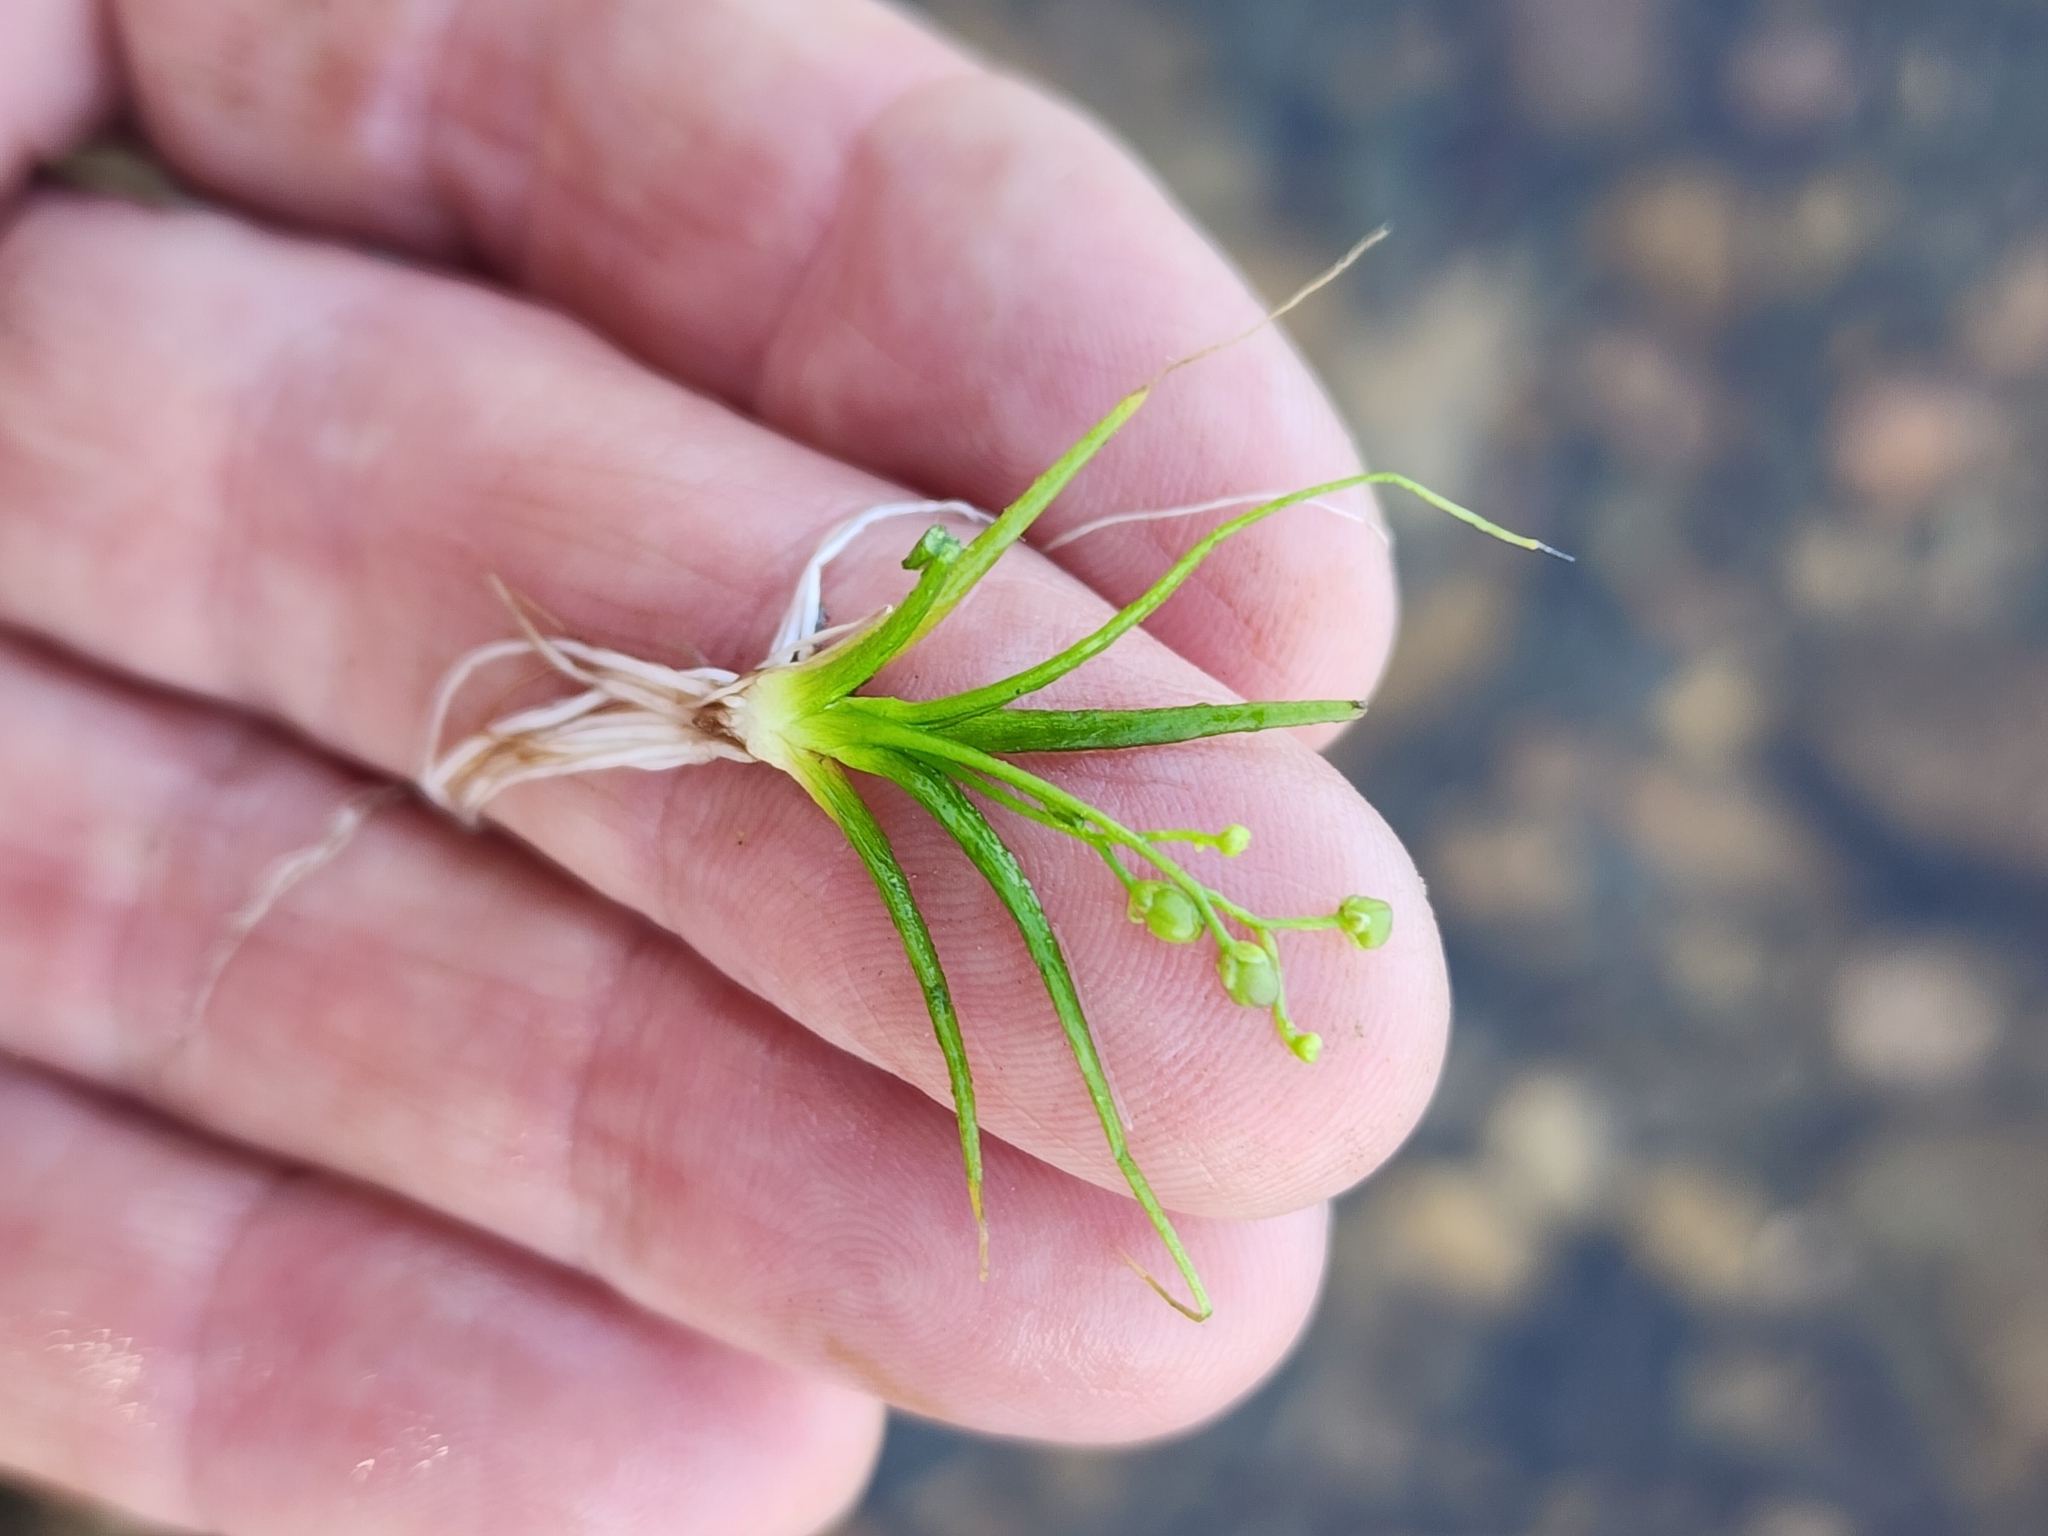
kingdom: Plantae
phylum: Tracheophyta
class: Magnoliopsida
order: Brassicales
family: Brassicaceae
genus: Subularia
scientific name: Subularia aquatica
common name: Awlwort
